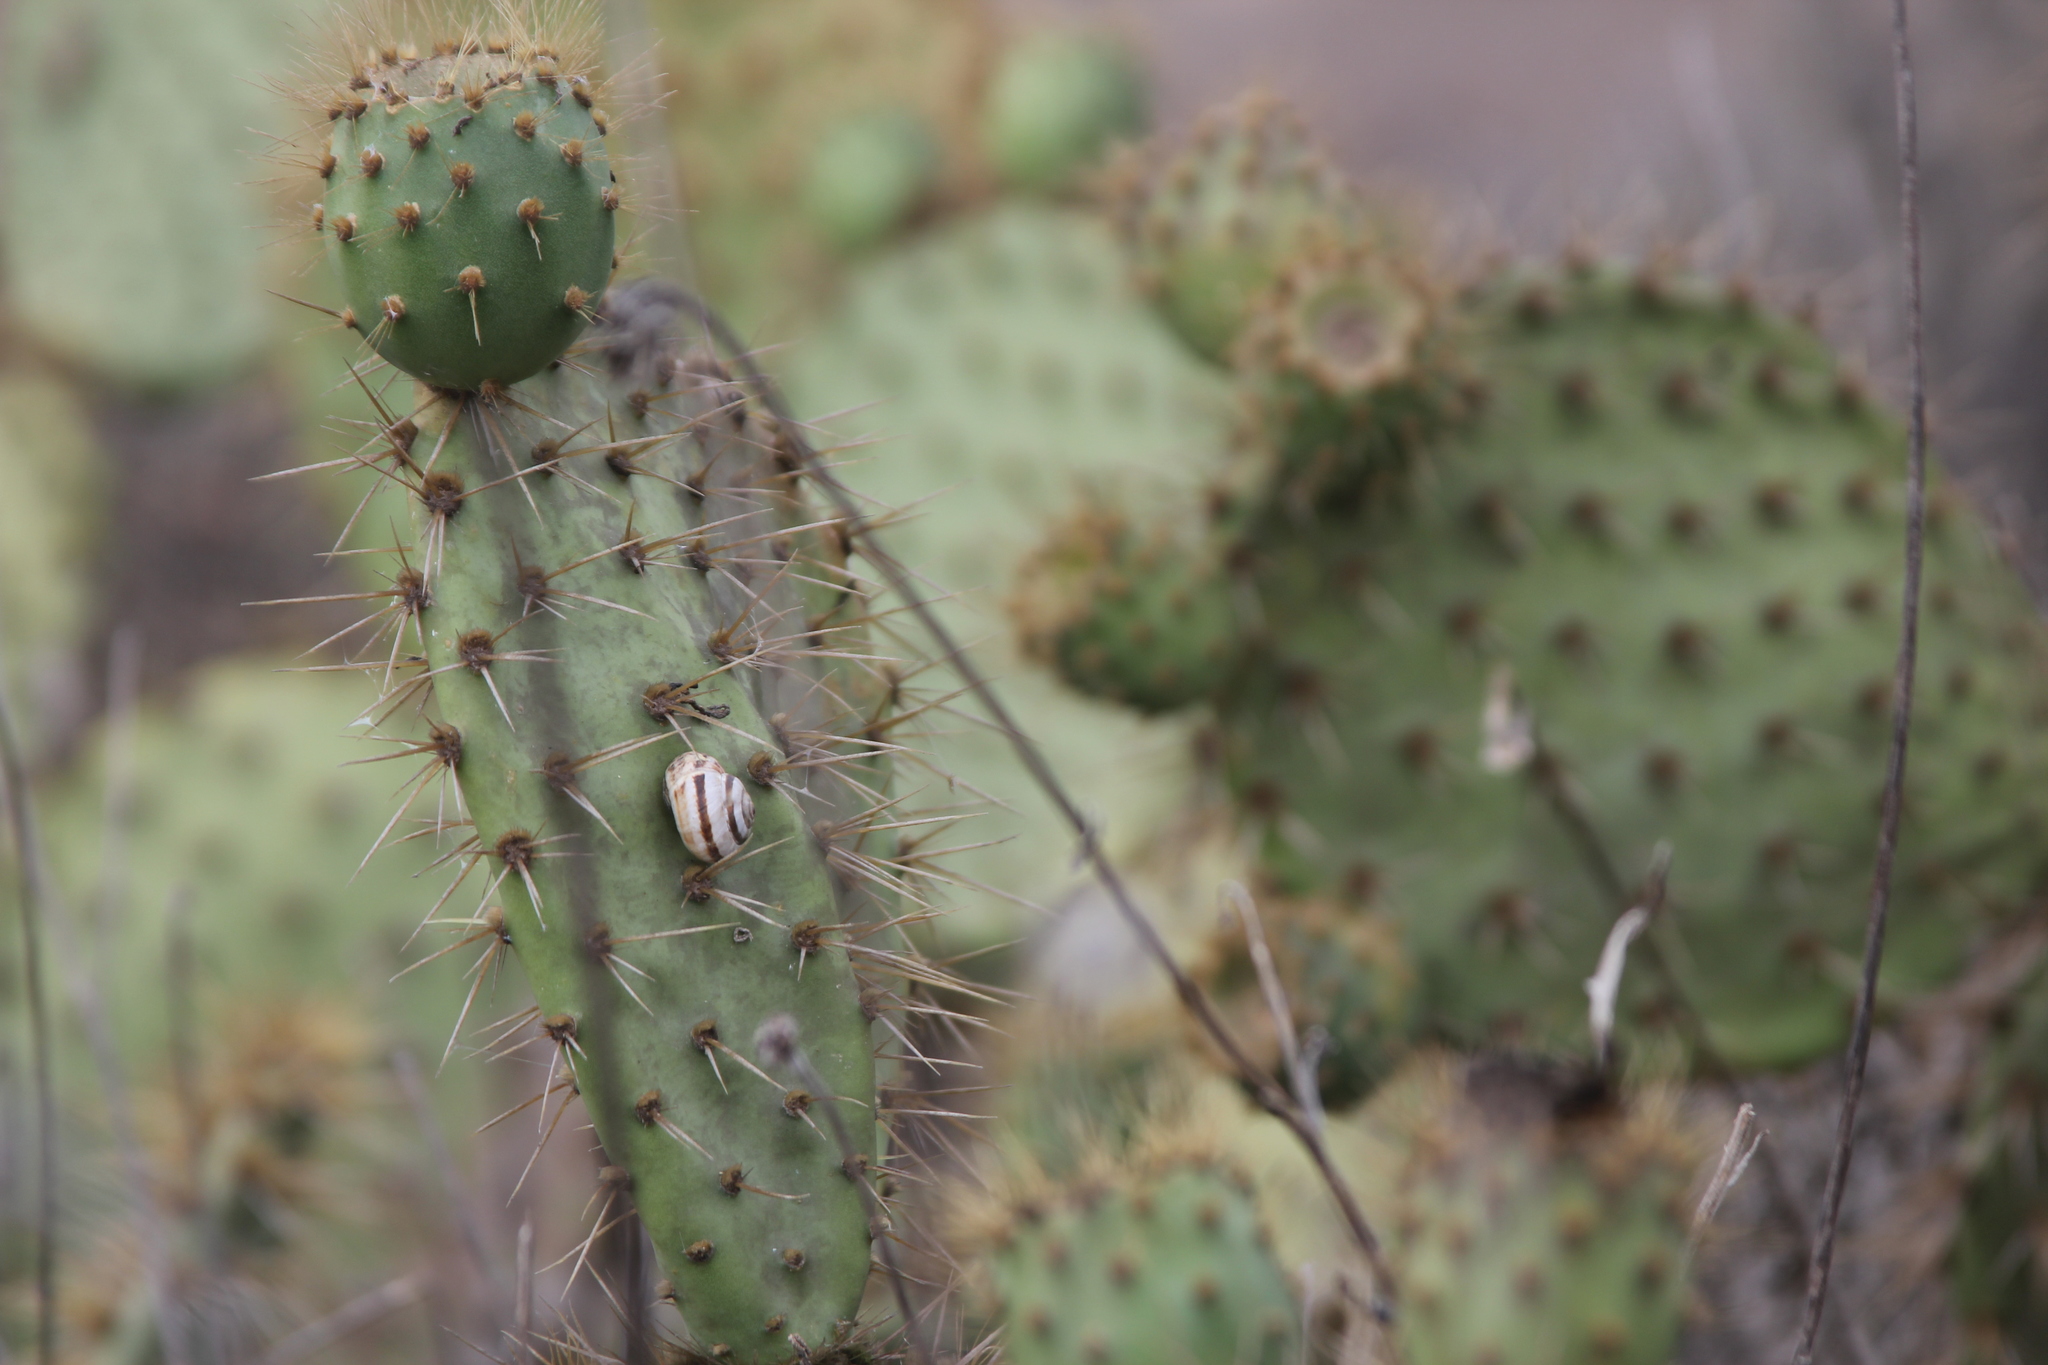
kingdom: Plantae
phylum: Tracheophyta
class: Magnoliopsida
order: Caryophyllales
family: Cactaceae
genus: Opuntia
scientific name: Opuntia oricola
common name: Chaparral prickly-pear
